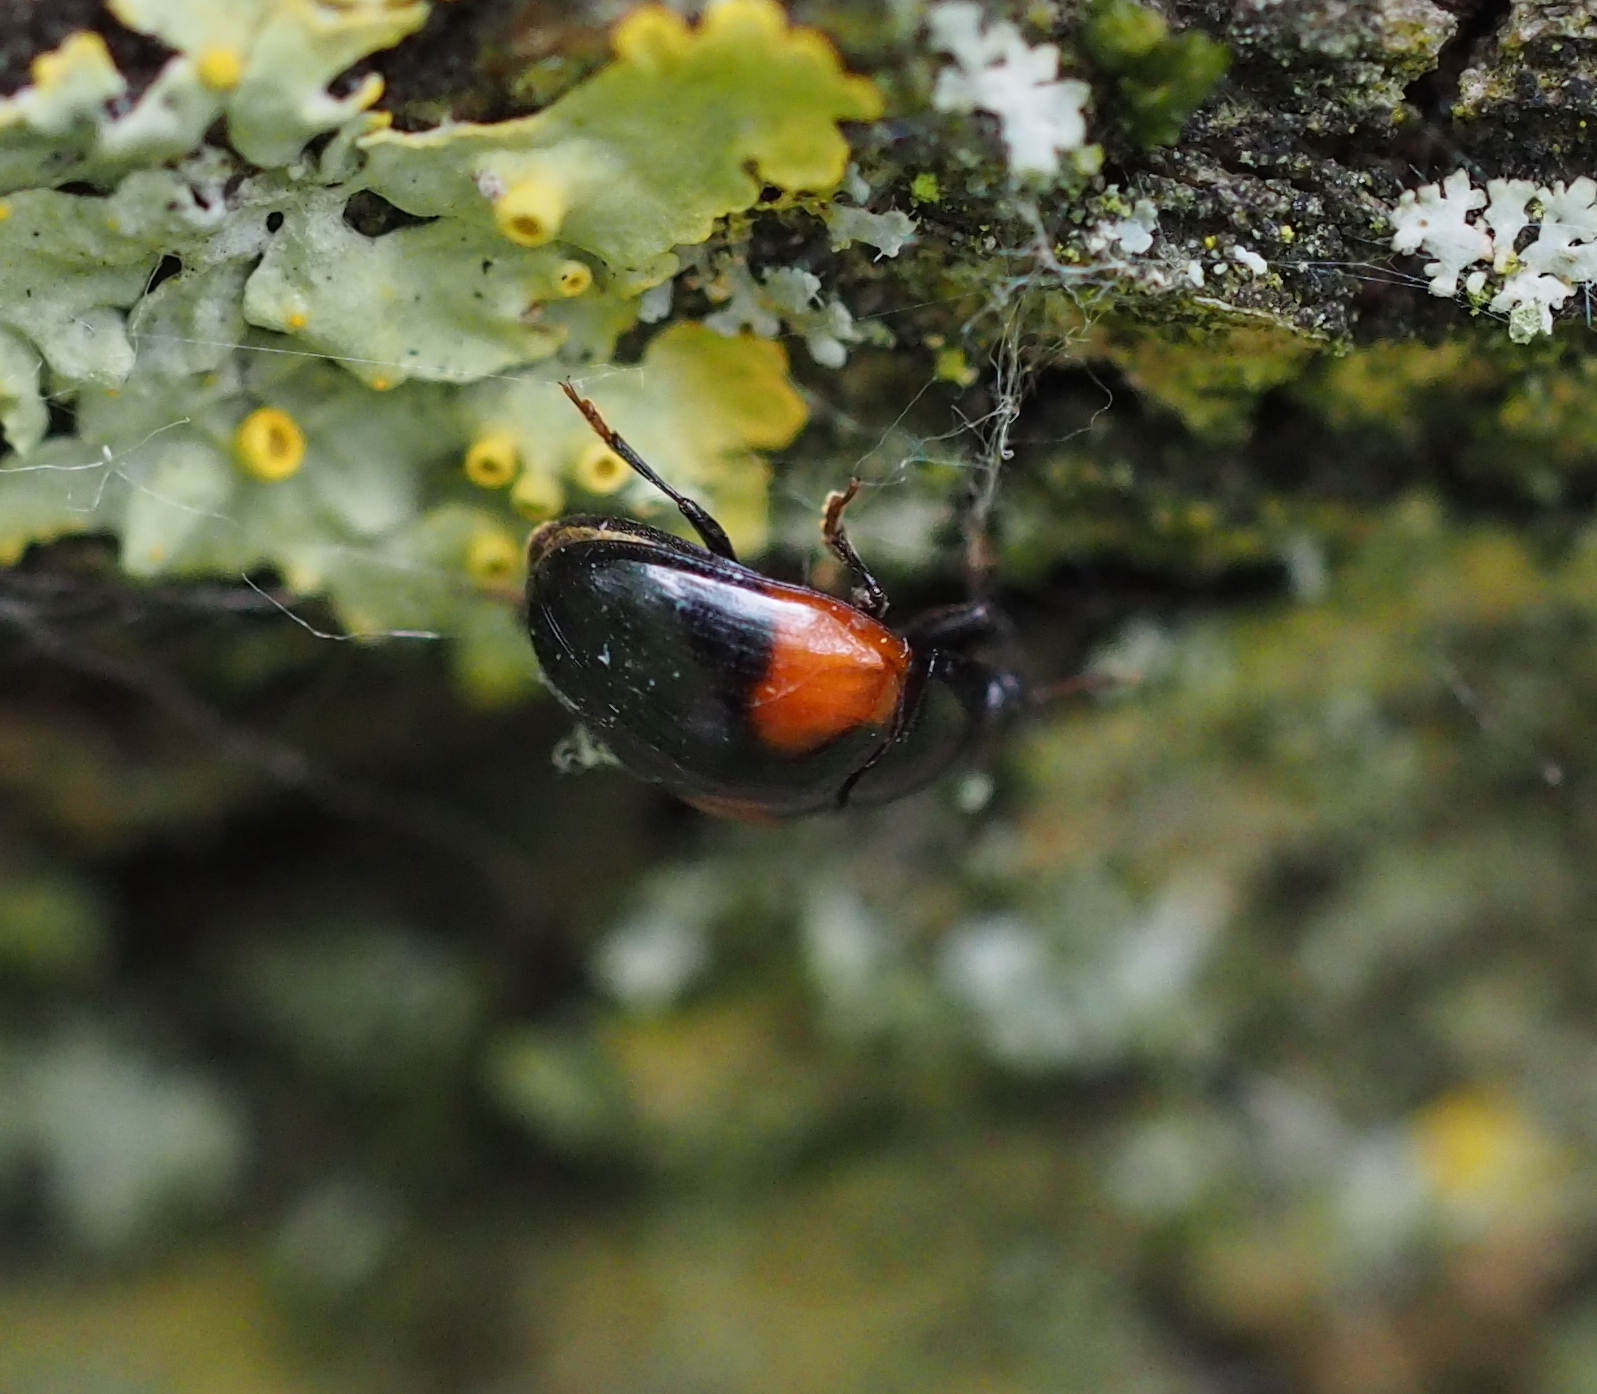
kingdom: Animalia
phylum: Arthropoda
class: Insecta
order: Coleoptera
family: Erotylidae
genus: Tritoma
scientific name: Tritoma bipustulata
